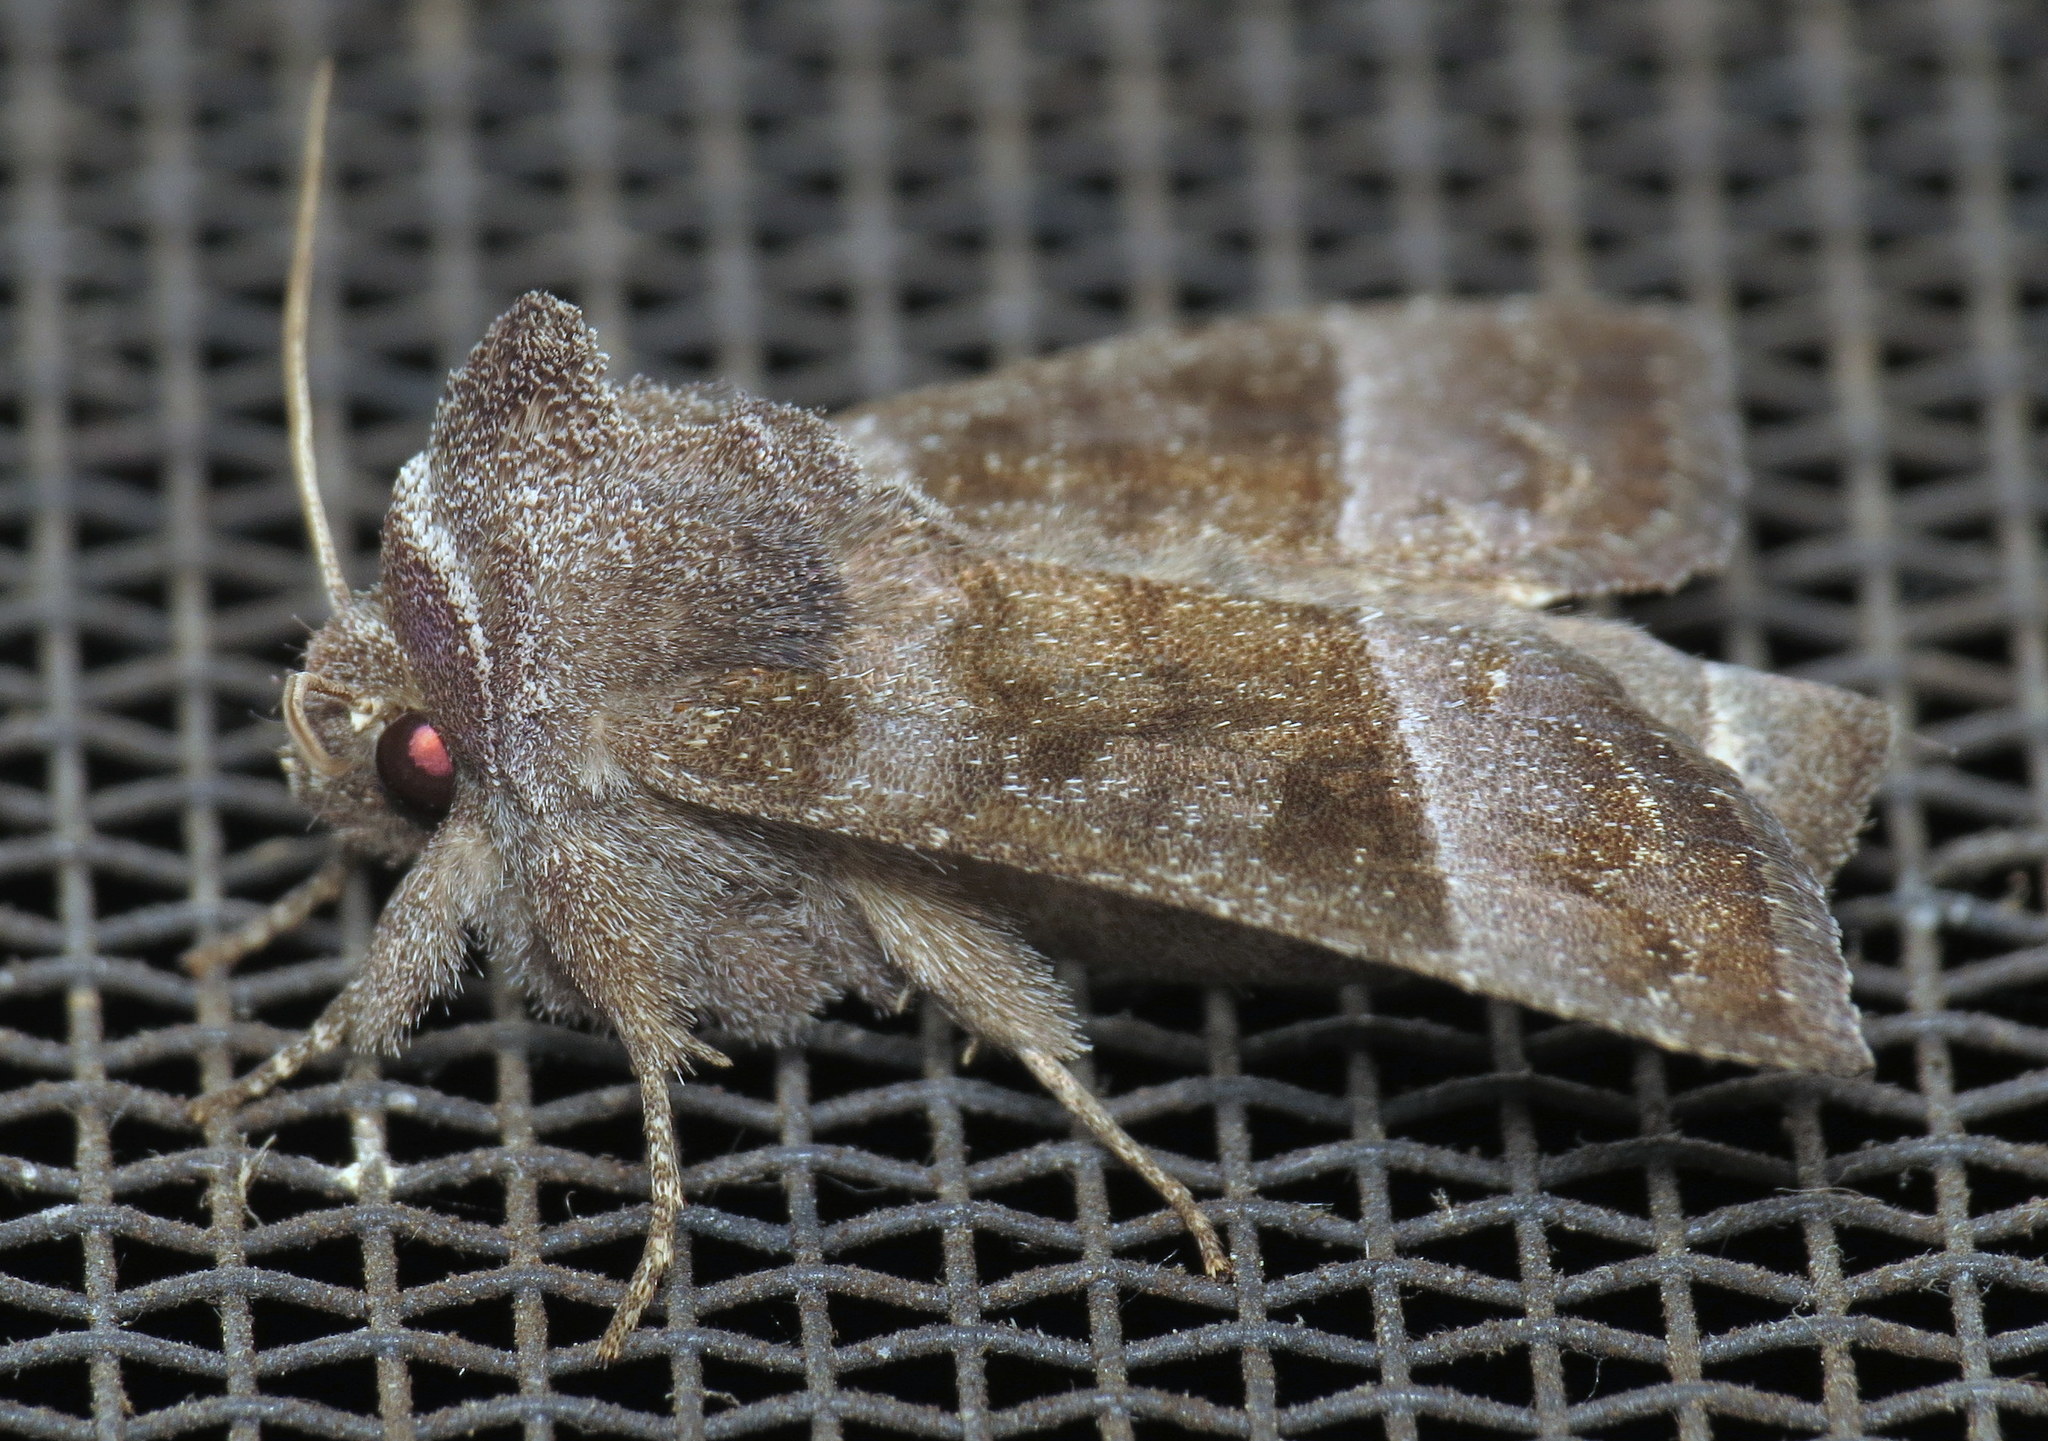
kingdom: Animalia
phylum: Arthropoda
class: Insecta
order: Lepidoptera
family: Noctuidae
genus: Papaipema
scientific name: Papaipema eupatorii
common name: Eupatorium borer moth
